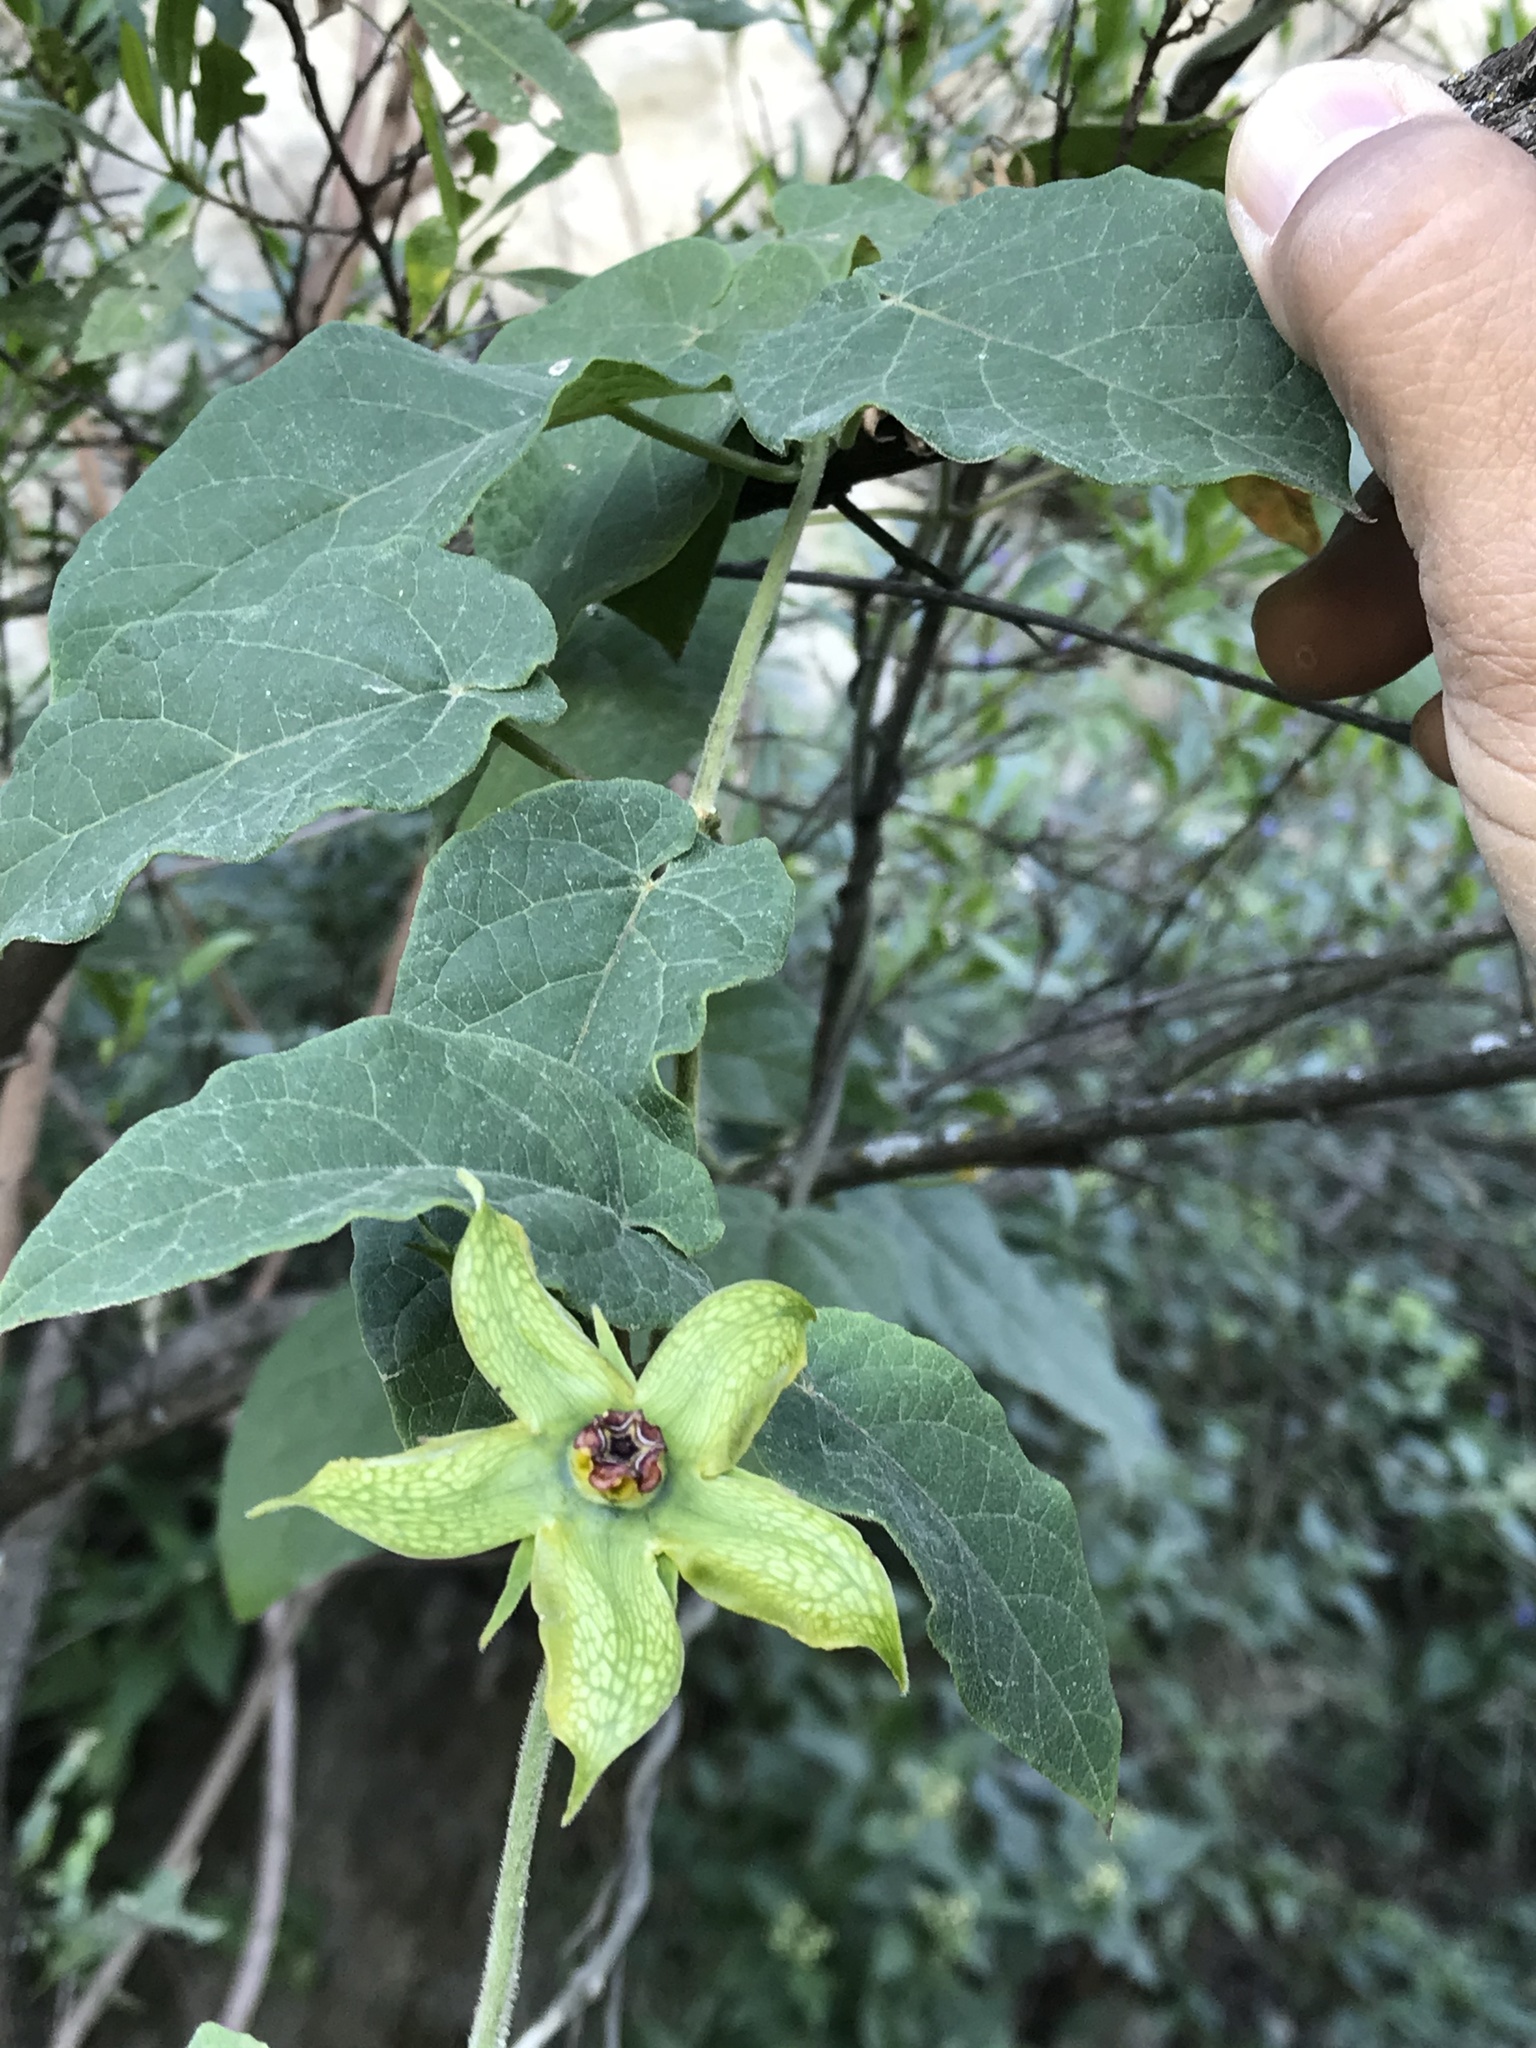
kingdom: Plantae
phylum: Tracheophyta
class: Magnoliopsida
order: Gentianales
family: Apocynaceae
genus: Gonolobus
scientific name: Gonolobus erianthus
